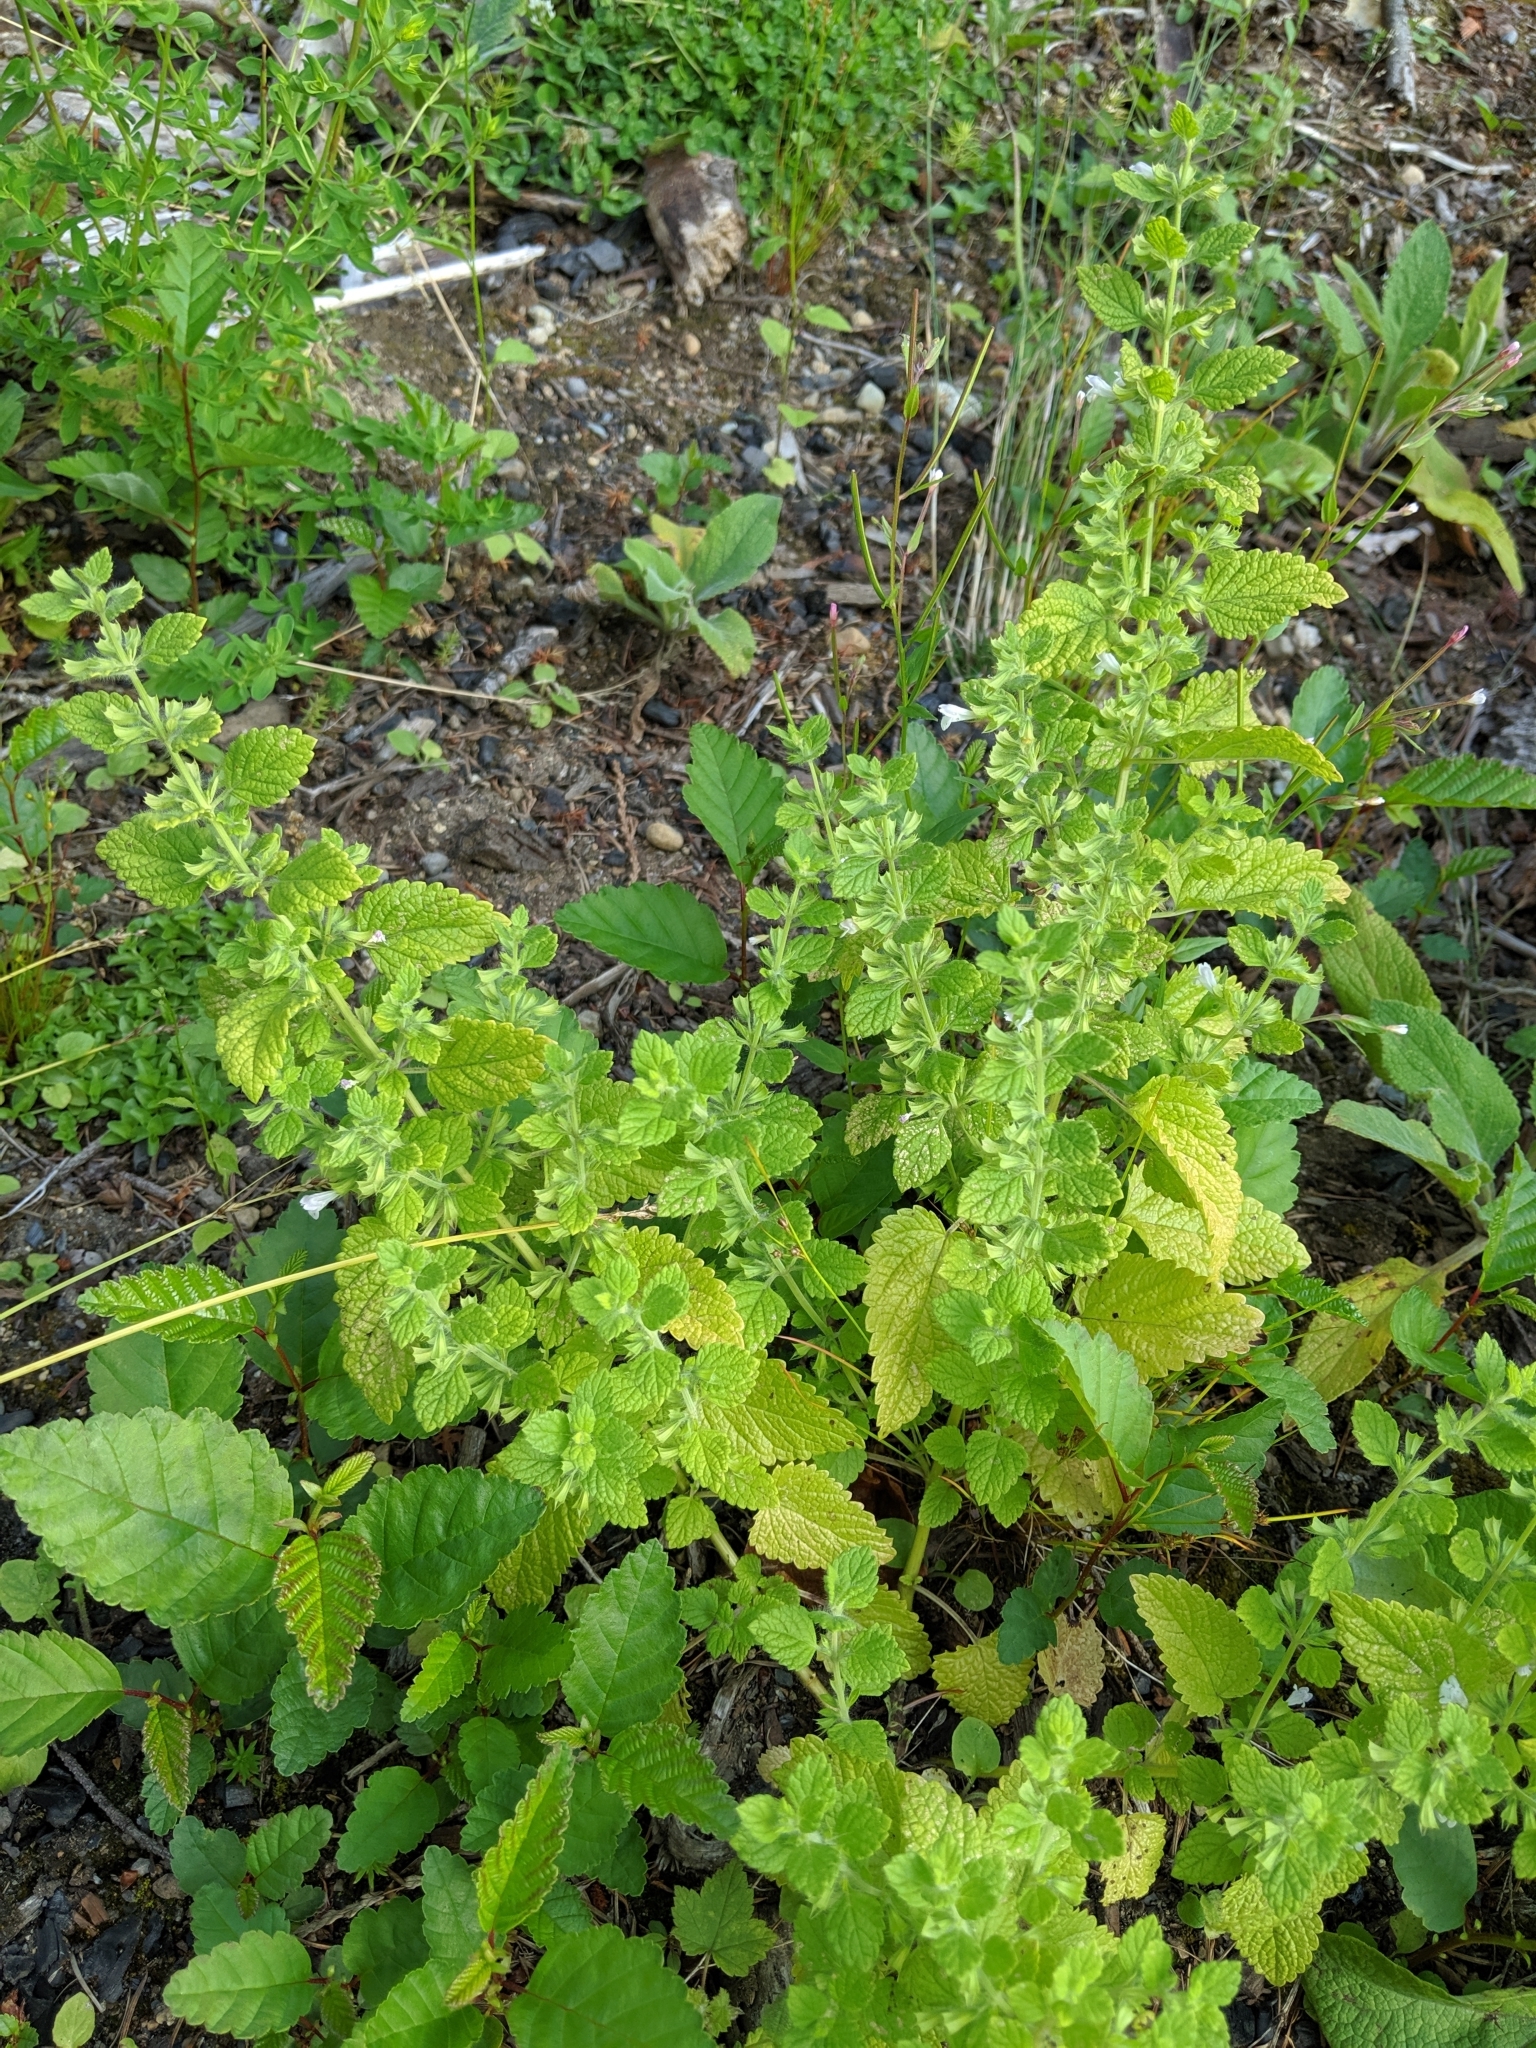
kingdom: Plantae
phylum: Tracheophyta
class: Magnoliopsida
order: Lamiales
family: Lamiaceae
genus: Melissa
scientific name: Melissa officinalis
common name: Balm
